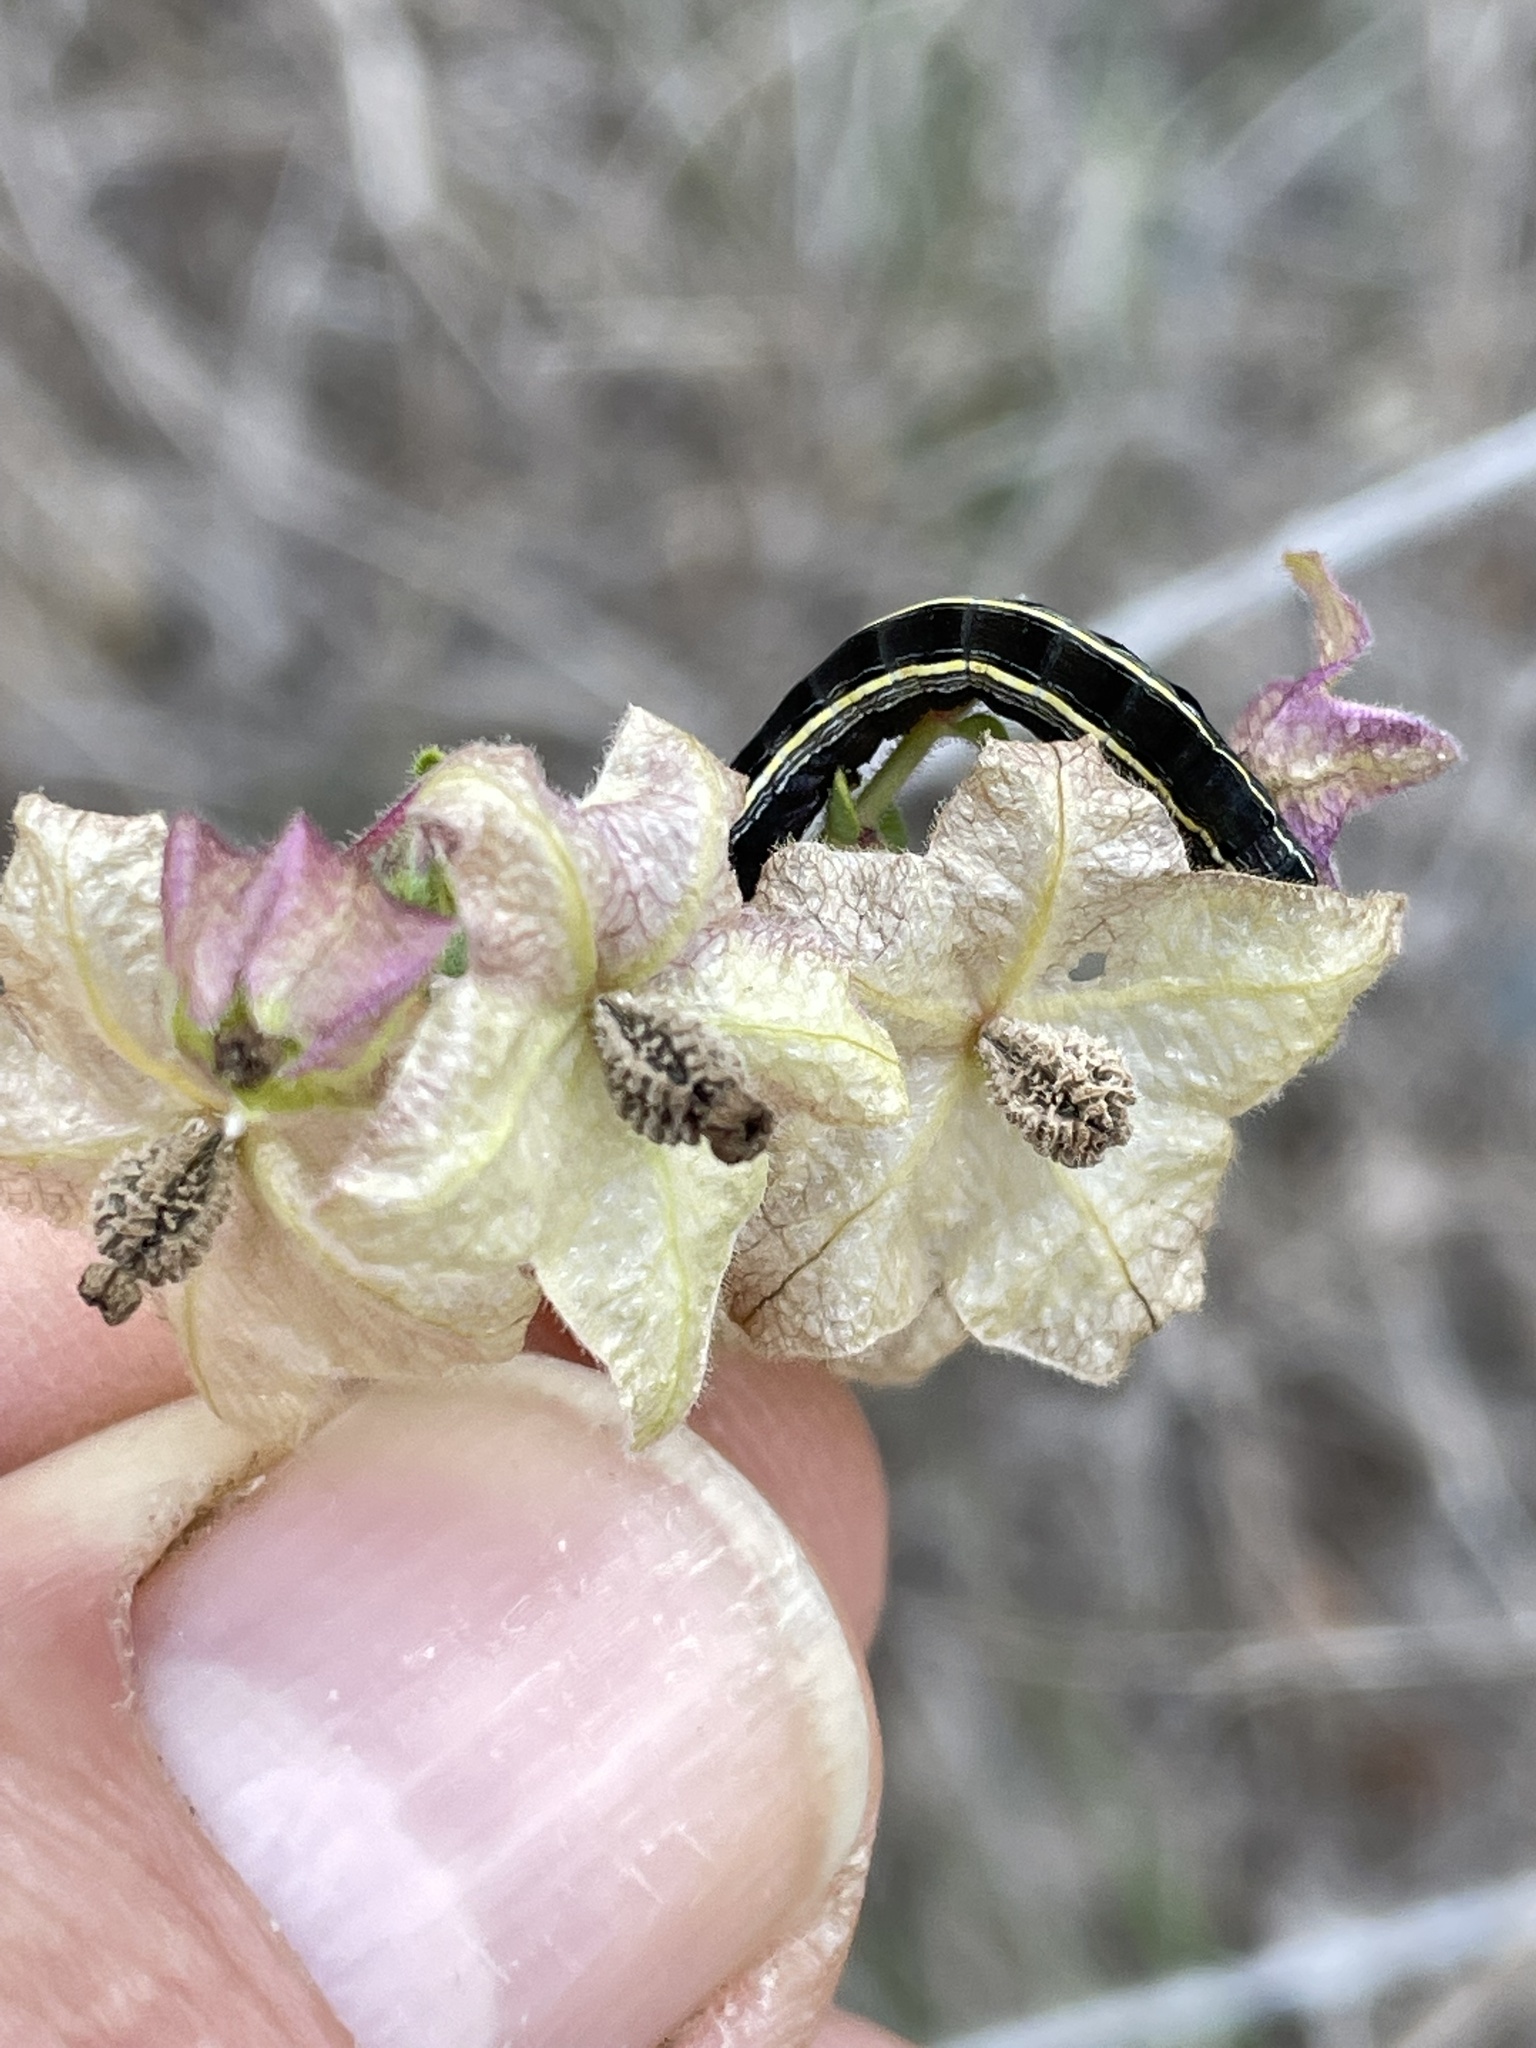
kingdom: Animalia
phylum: Arthropoda
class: Insecta
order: Lepidoptera
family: Noctuidae
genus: Spodoptera
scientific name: Spodoptera ornithogalli
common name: Yellow-striped armyworm
